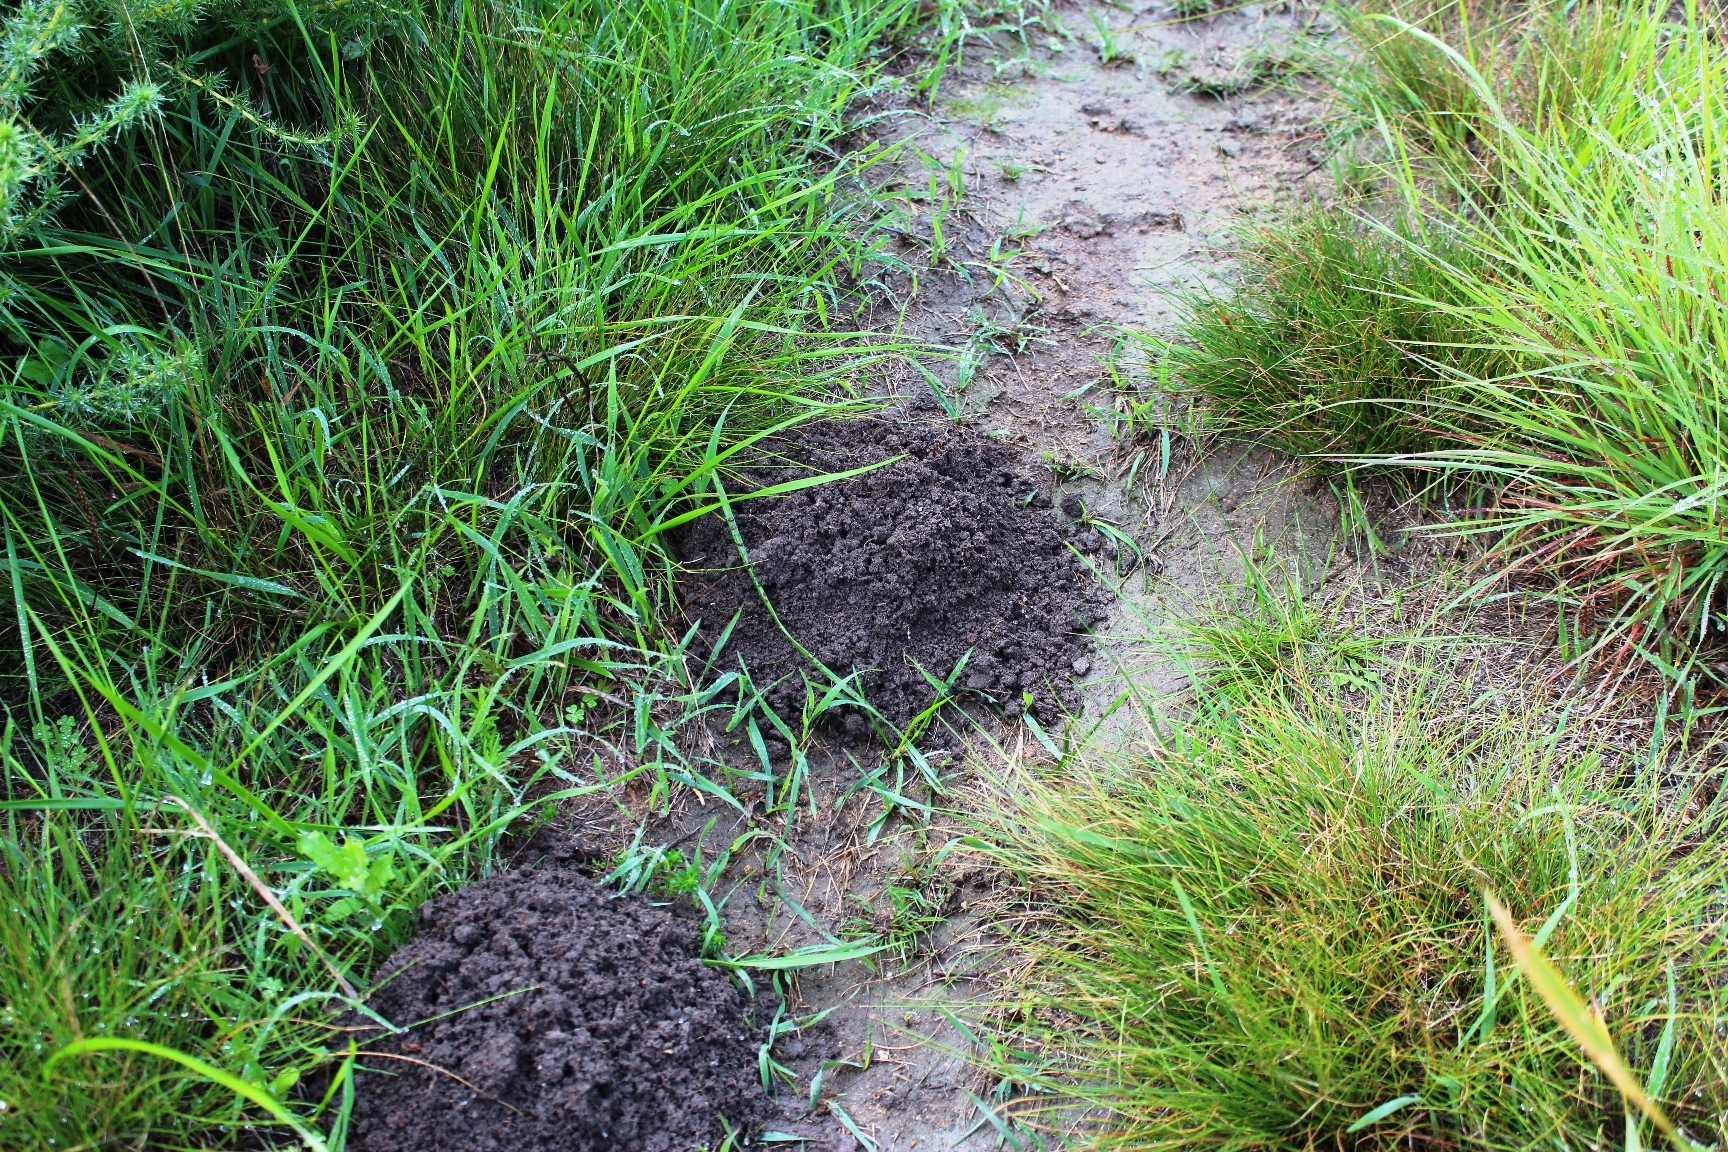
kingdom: Animalia
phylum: Chordata
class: Mammalia
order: Rodentia
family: Bathyergidae
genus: Georychus
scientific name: Georychus capensis
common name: Cape mole-rat
